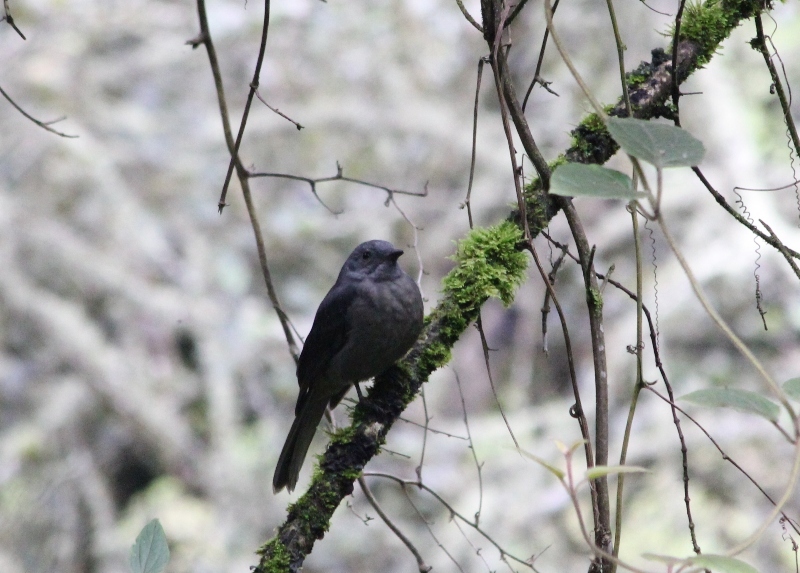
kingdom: Animalia
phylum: Chordata
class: Aves
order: Passeriformes
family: Cotingidae
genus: Lipaugus
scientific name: Lipaugus fuscocinereus
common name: Dusky piha
